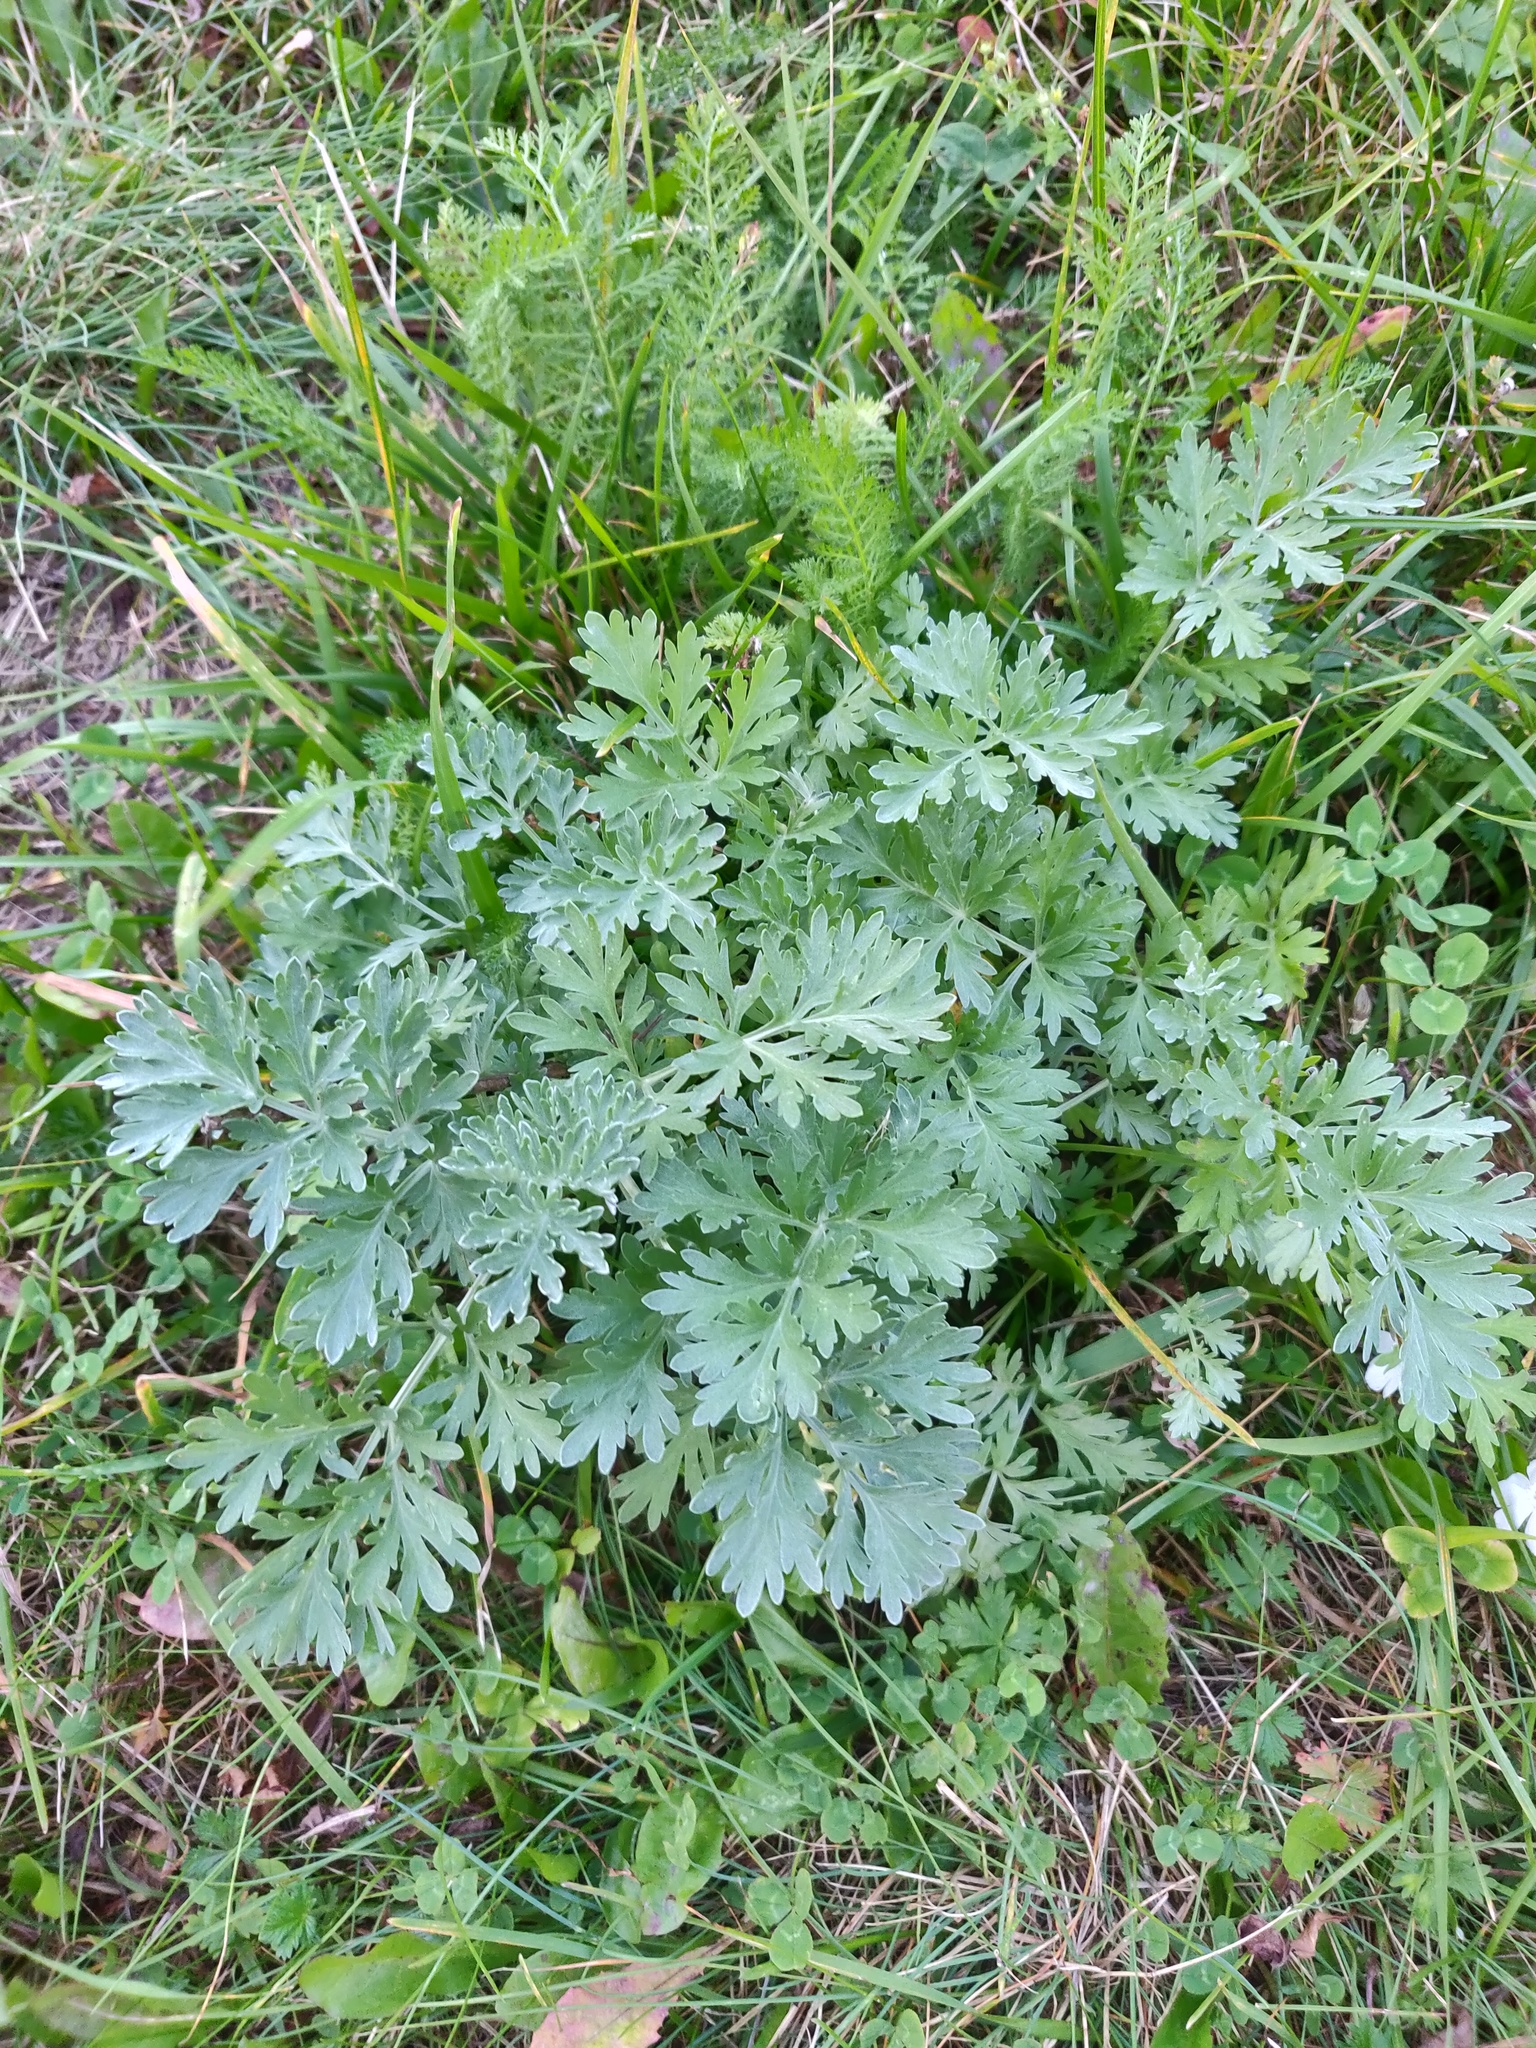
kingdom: Plantae
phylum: Tracheophyta
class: Magnoliopsida
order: Asterales
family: Asteraceae
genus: Artemisia
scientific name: Artemisia absinthium
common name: Wormwood
